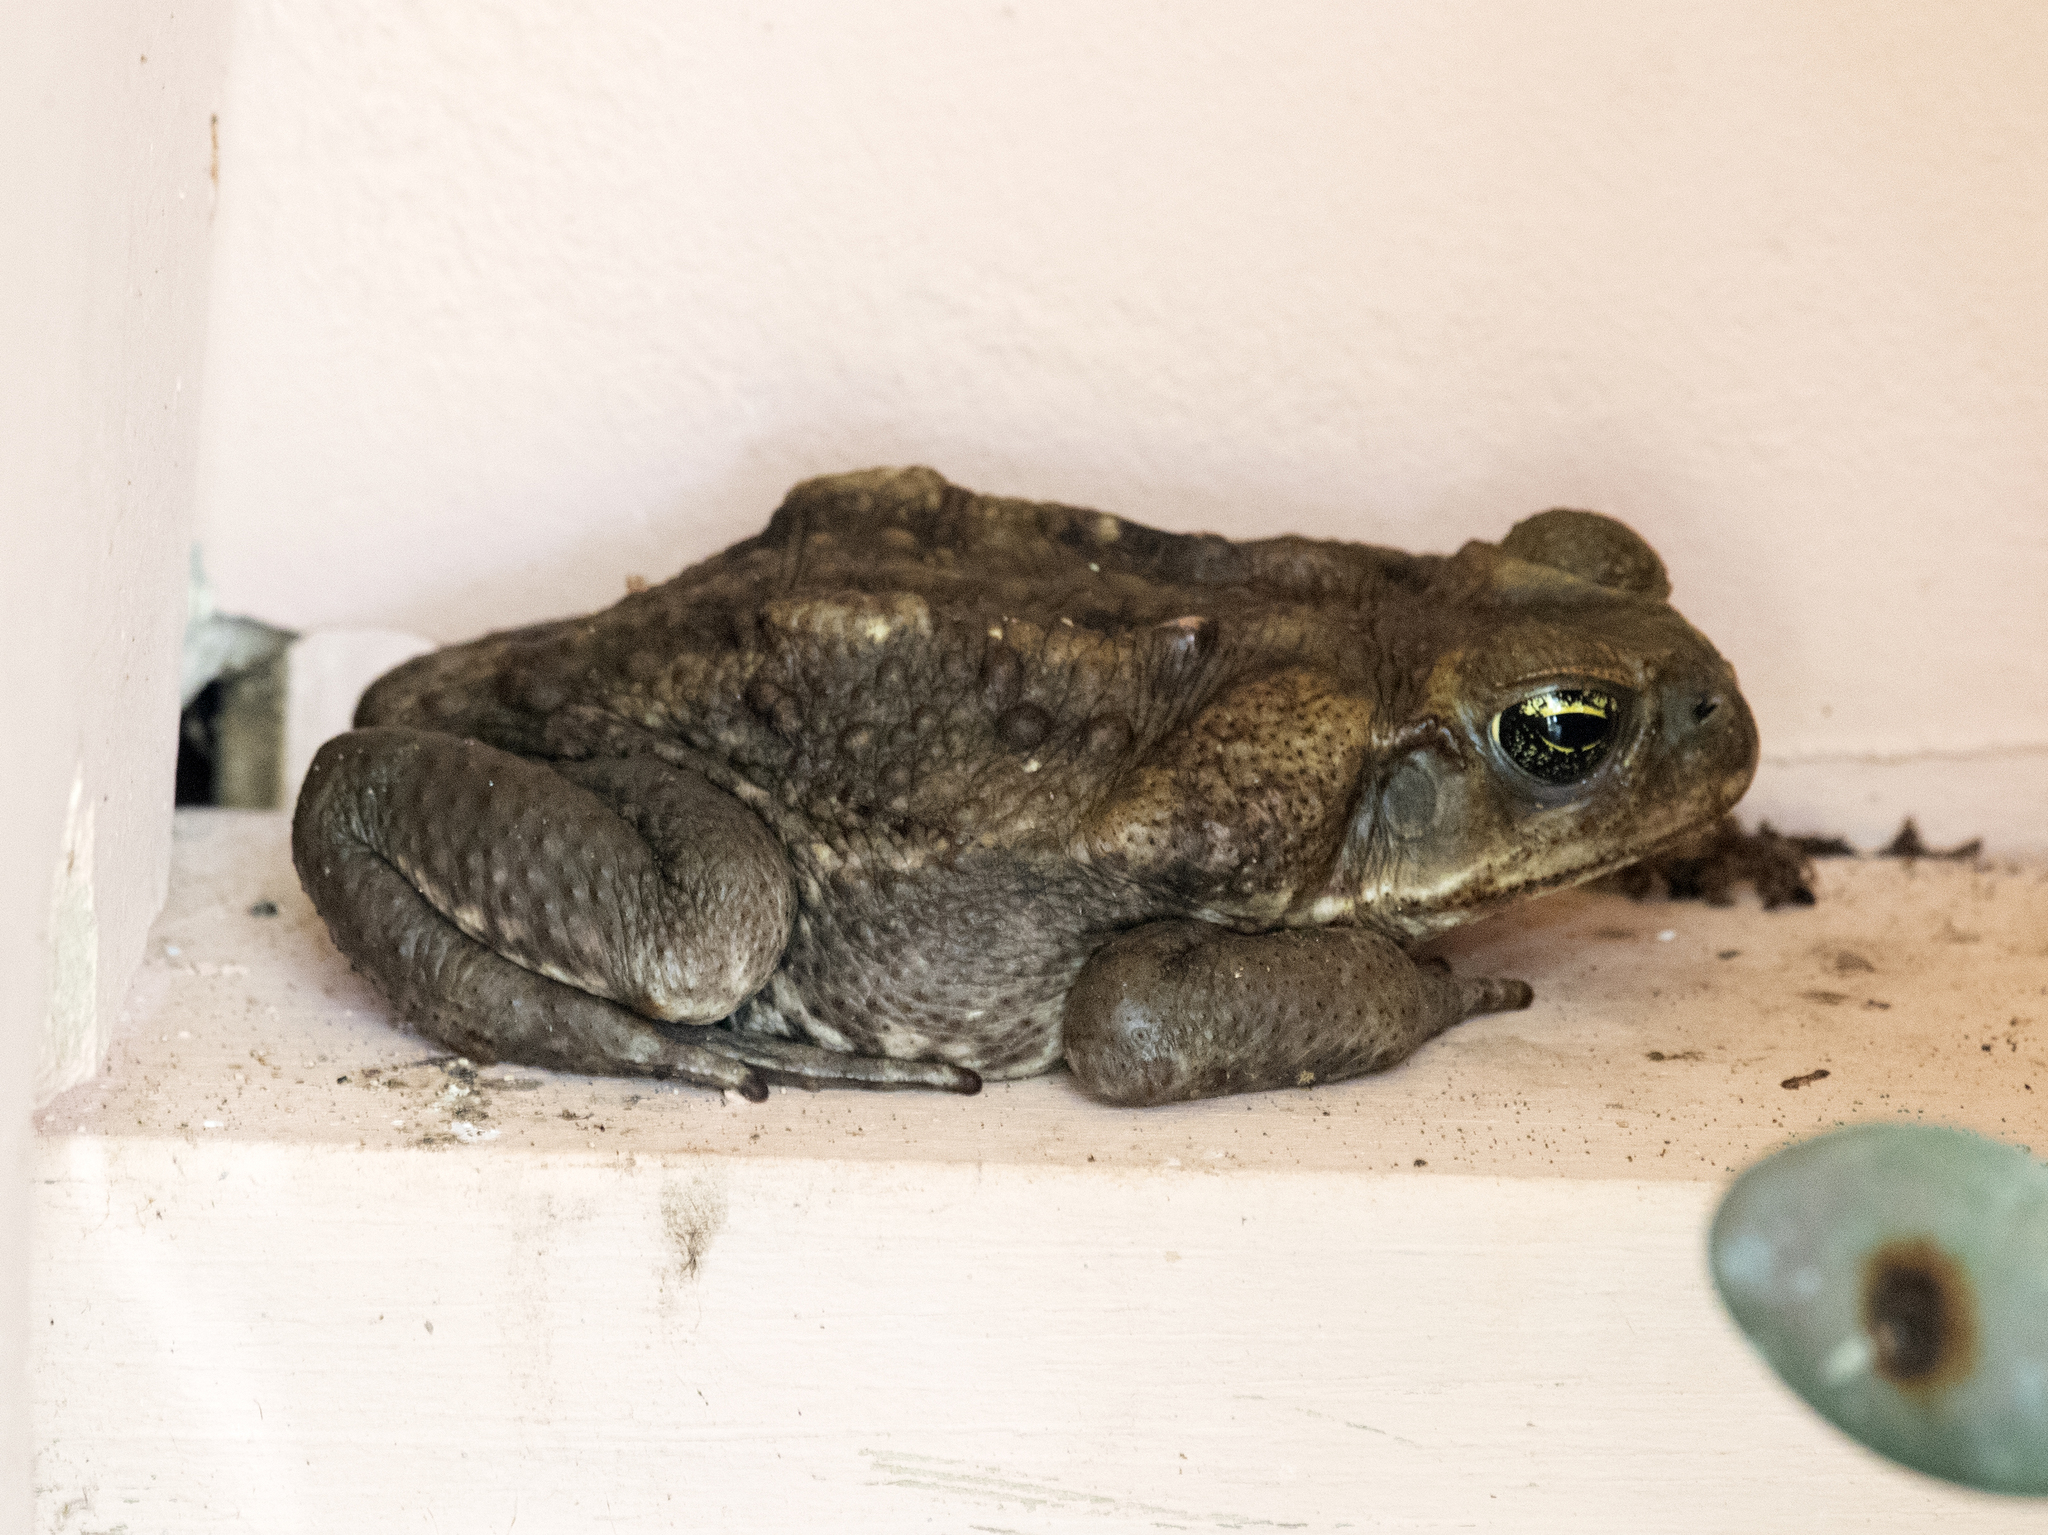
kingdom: Animalia
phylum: Chordata
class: Amphibia
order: Anura
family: Bufonidae
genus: Rhinella
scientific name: Rhinella horribilis
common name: Mesoamerican cane toad
